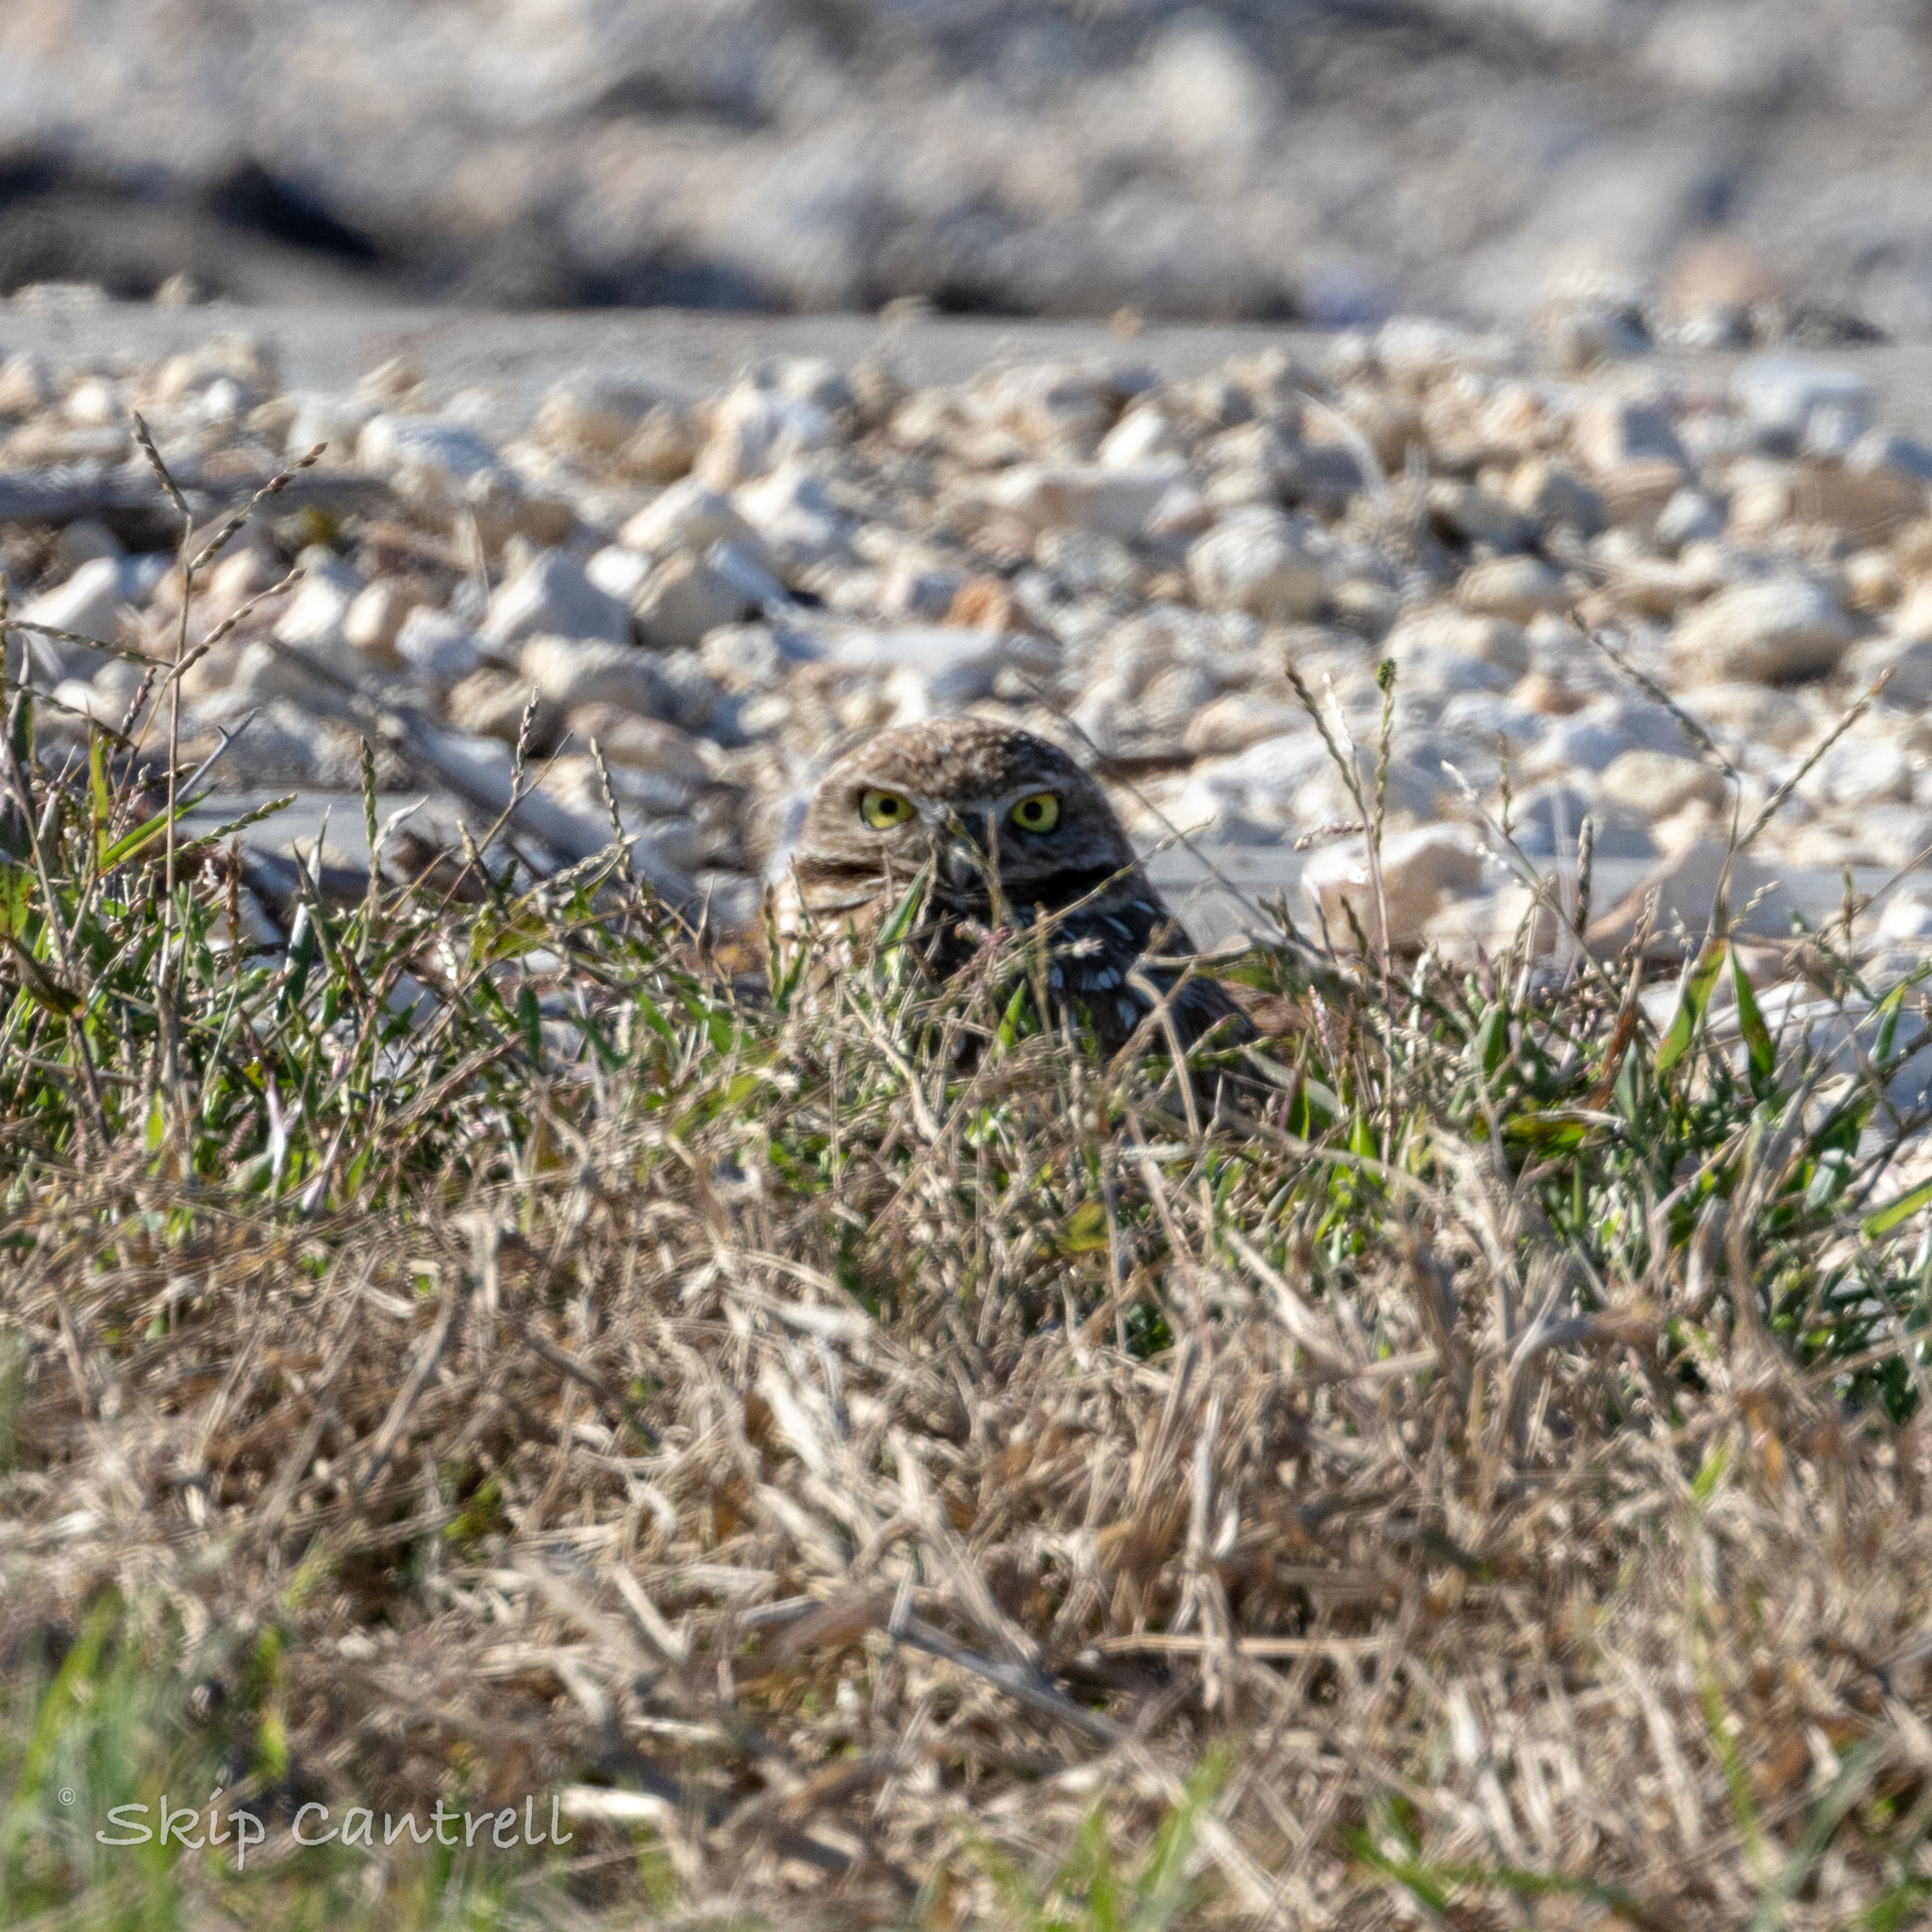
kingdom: Animalia
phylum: Chordata
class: Aves
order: Strigiformes
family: Strigidae
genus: Athene
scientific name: Athene cunicularia
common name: Burrowing owl
